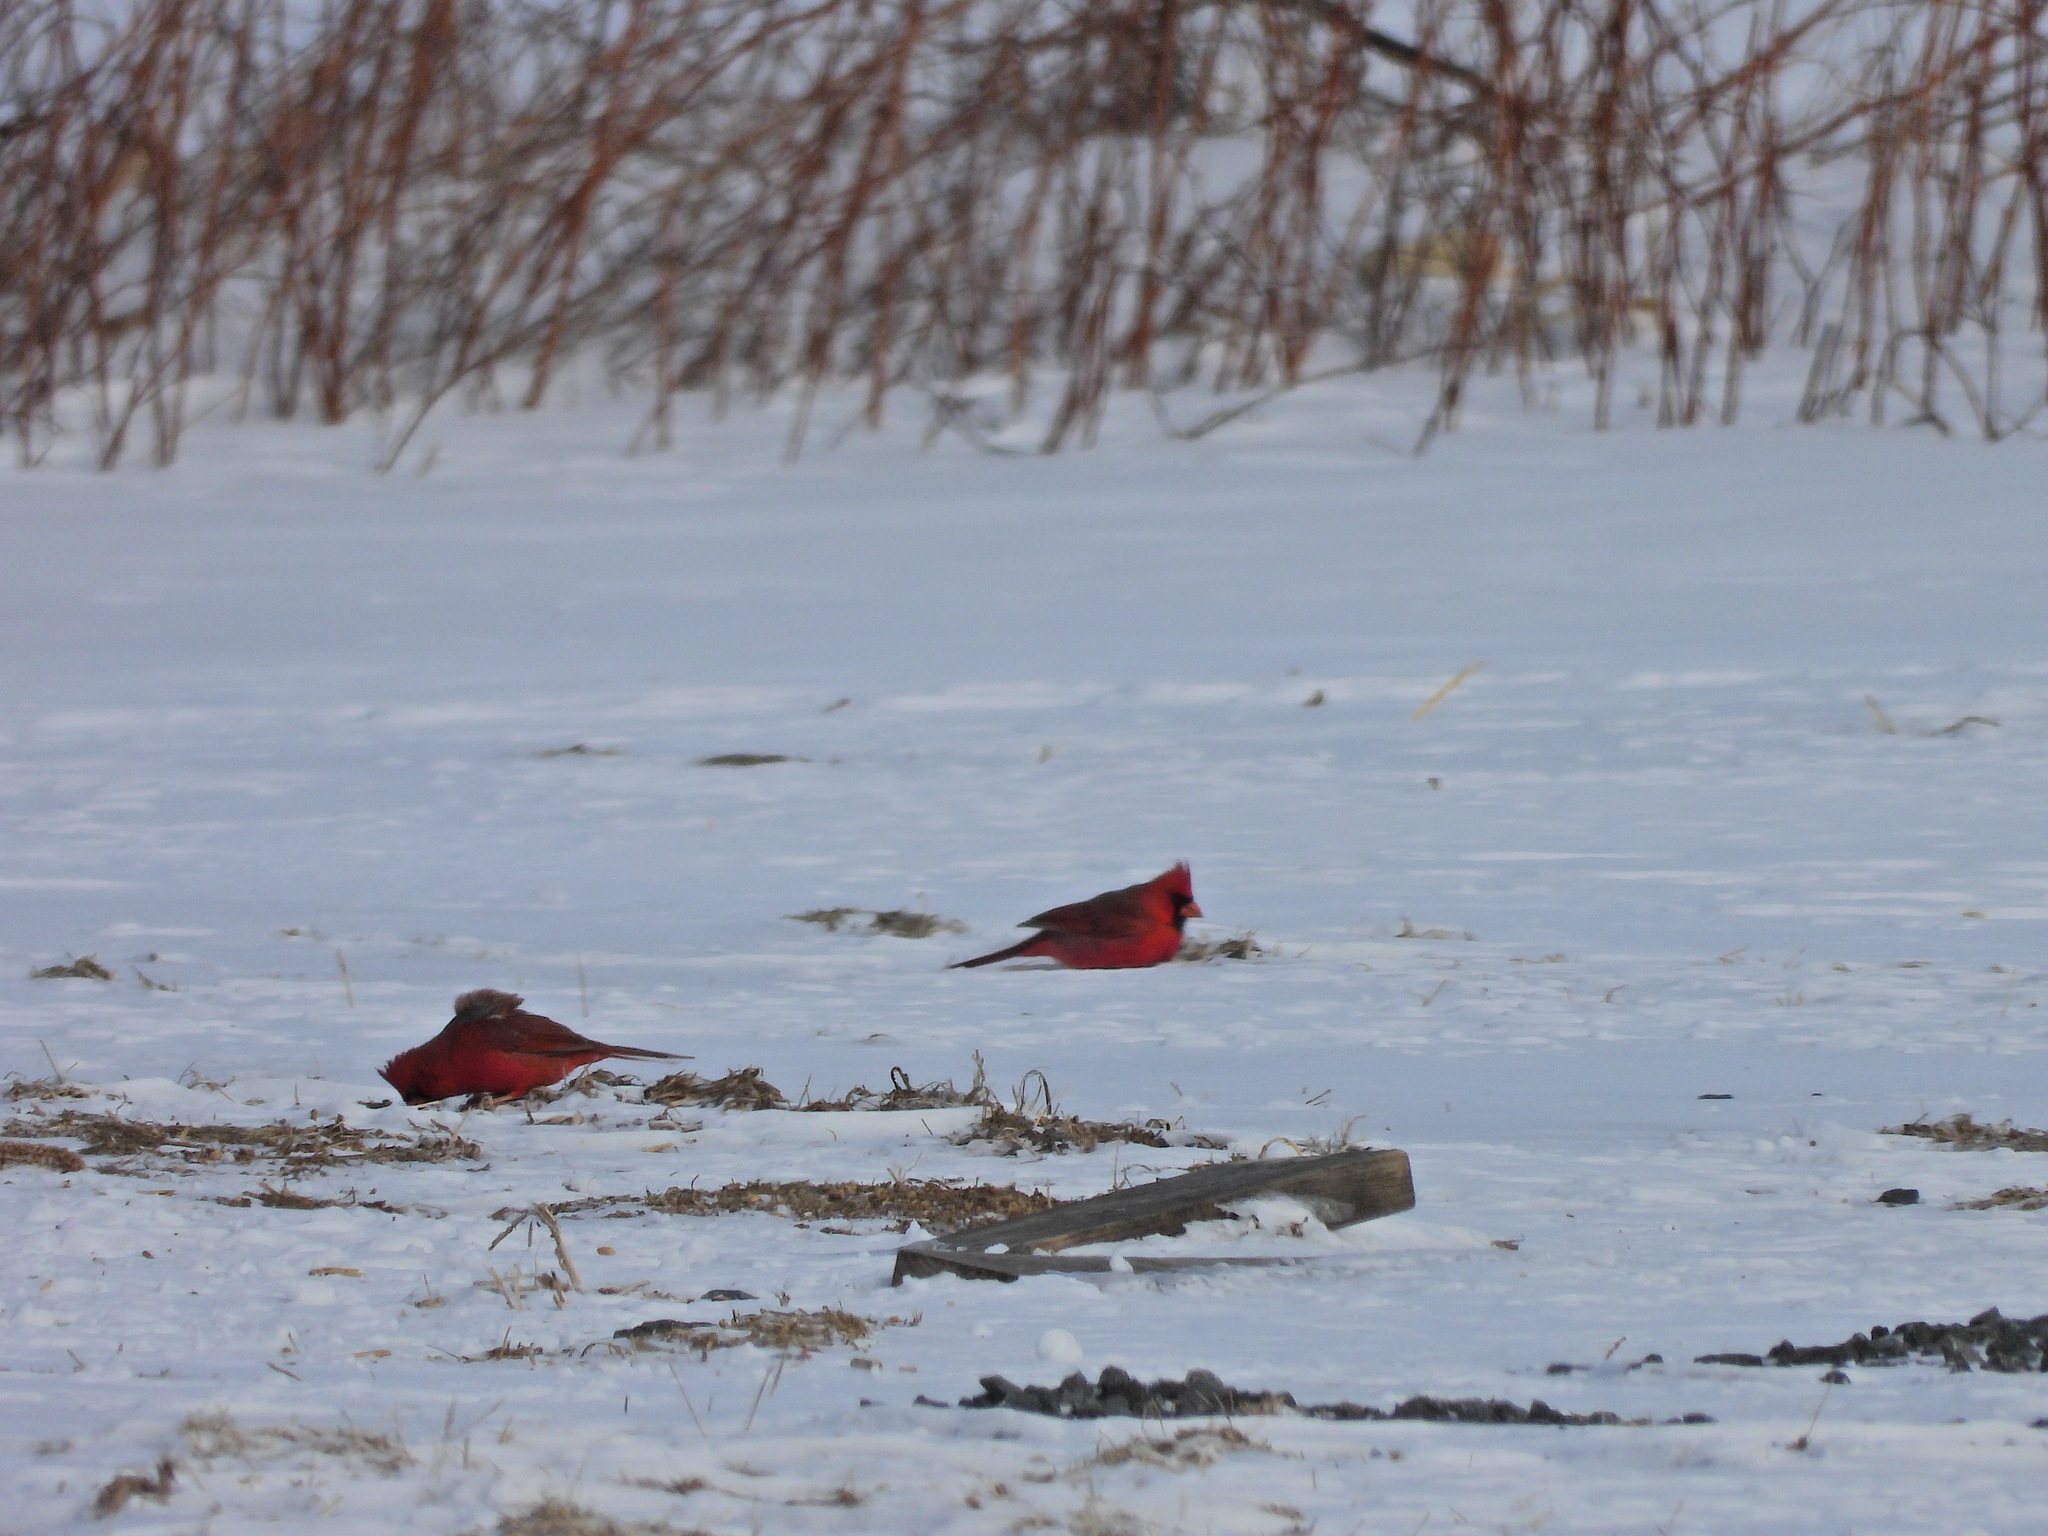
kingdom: Animalia
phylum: Chordata
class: Aves
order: Passeriformes
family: Cardinalidae
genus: Cardinalis
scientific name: Cardinalis cardinalis
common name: Northern cardinal
